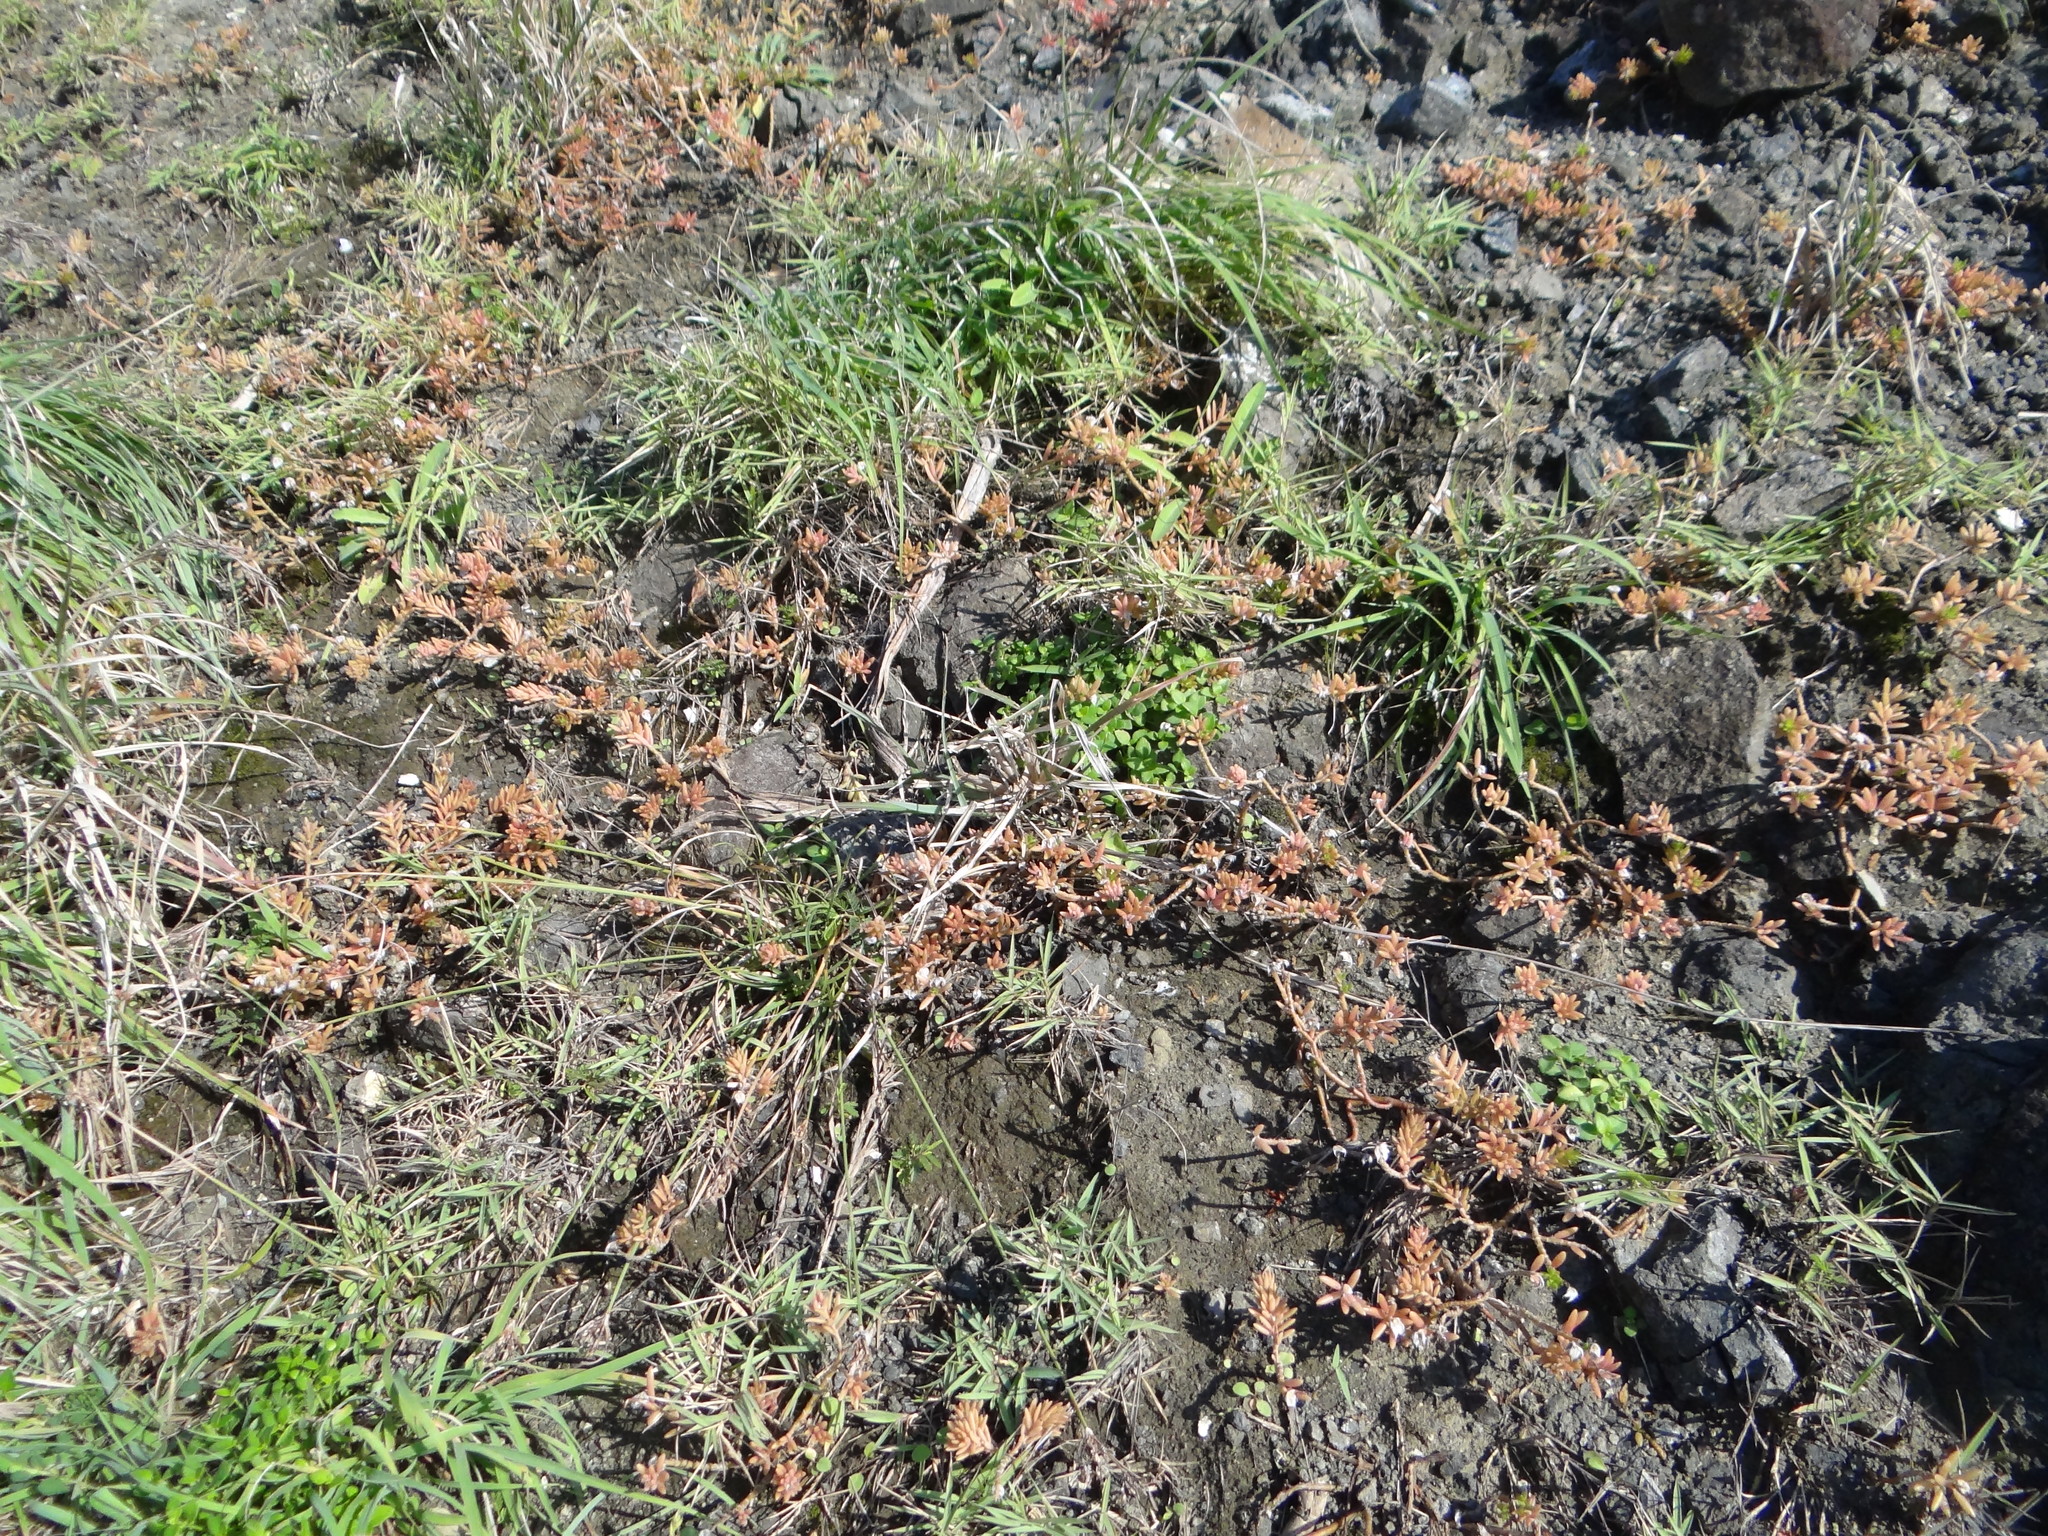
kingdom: Plantae
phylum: Tracheophyta
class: Magnoliopsida
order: Caryophyllales
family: Portulacaceae
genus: Portulaca
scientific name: Portulaca pilosa
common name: Kiss me quick
